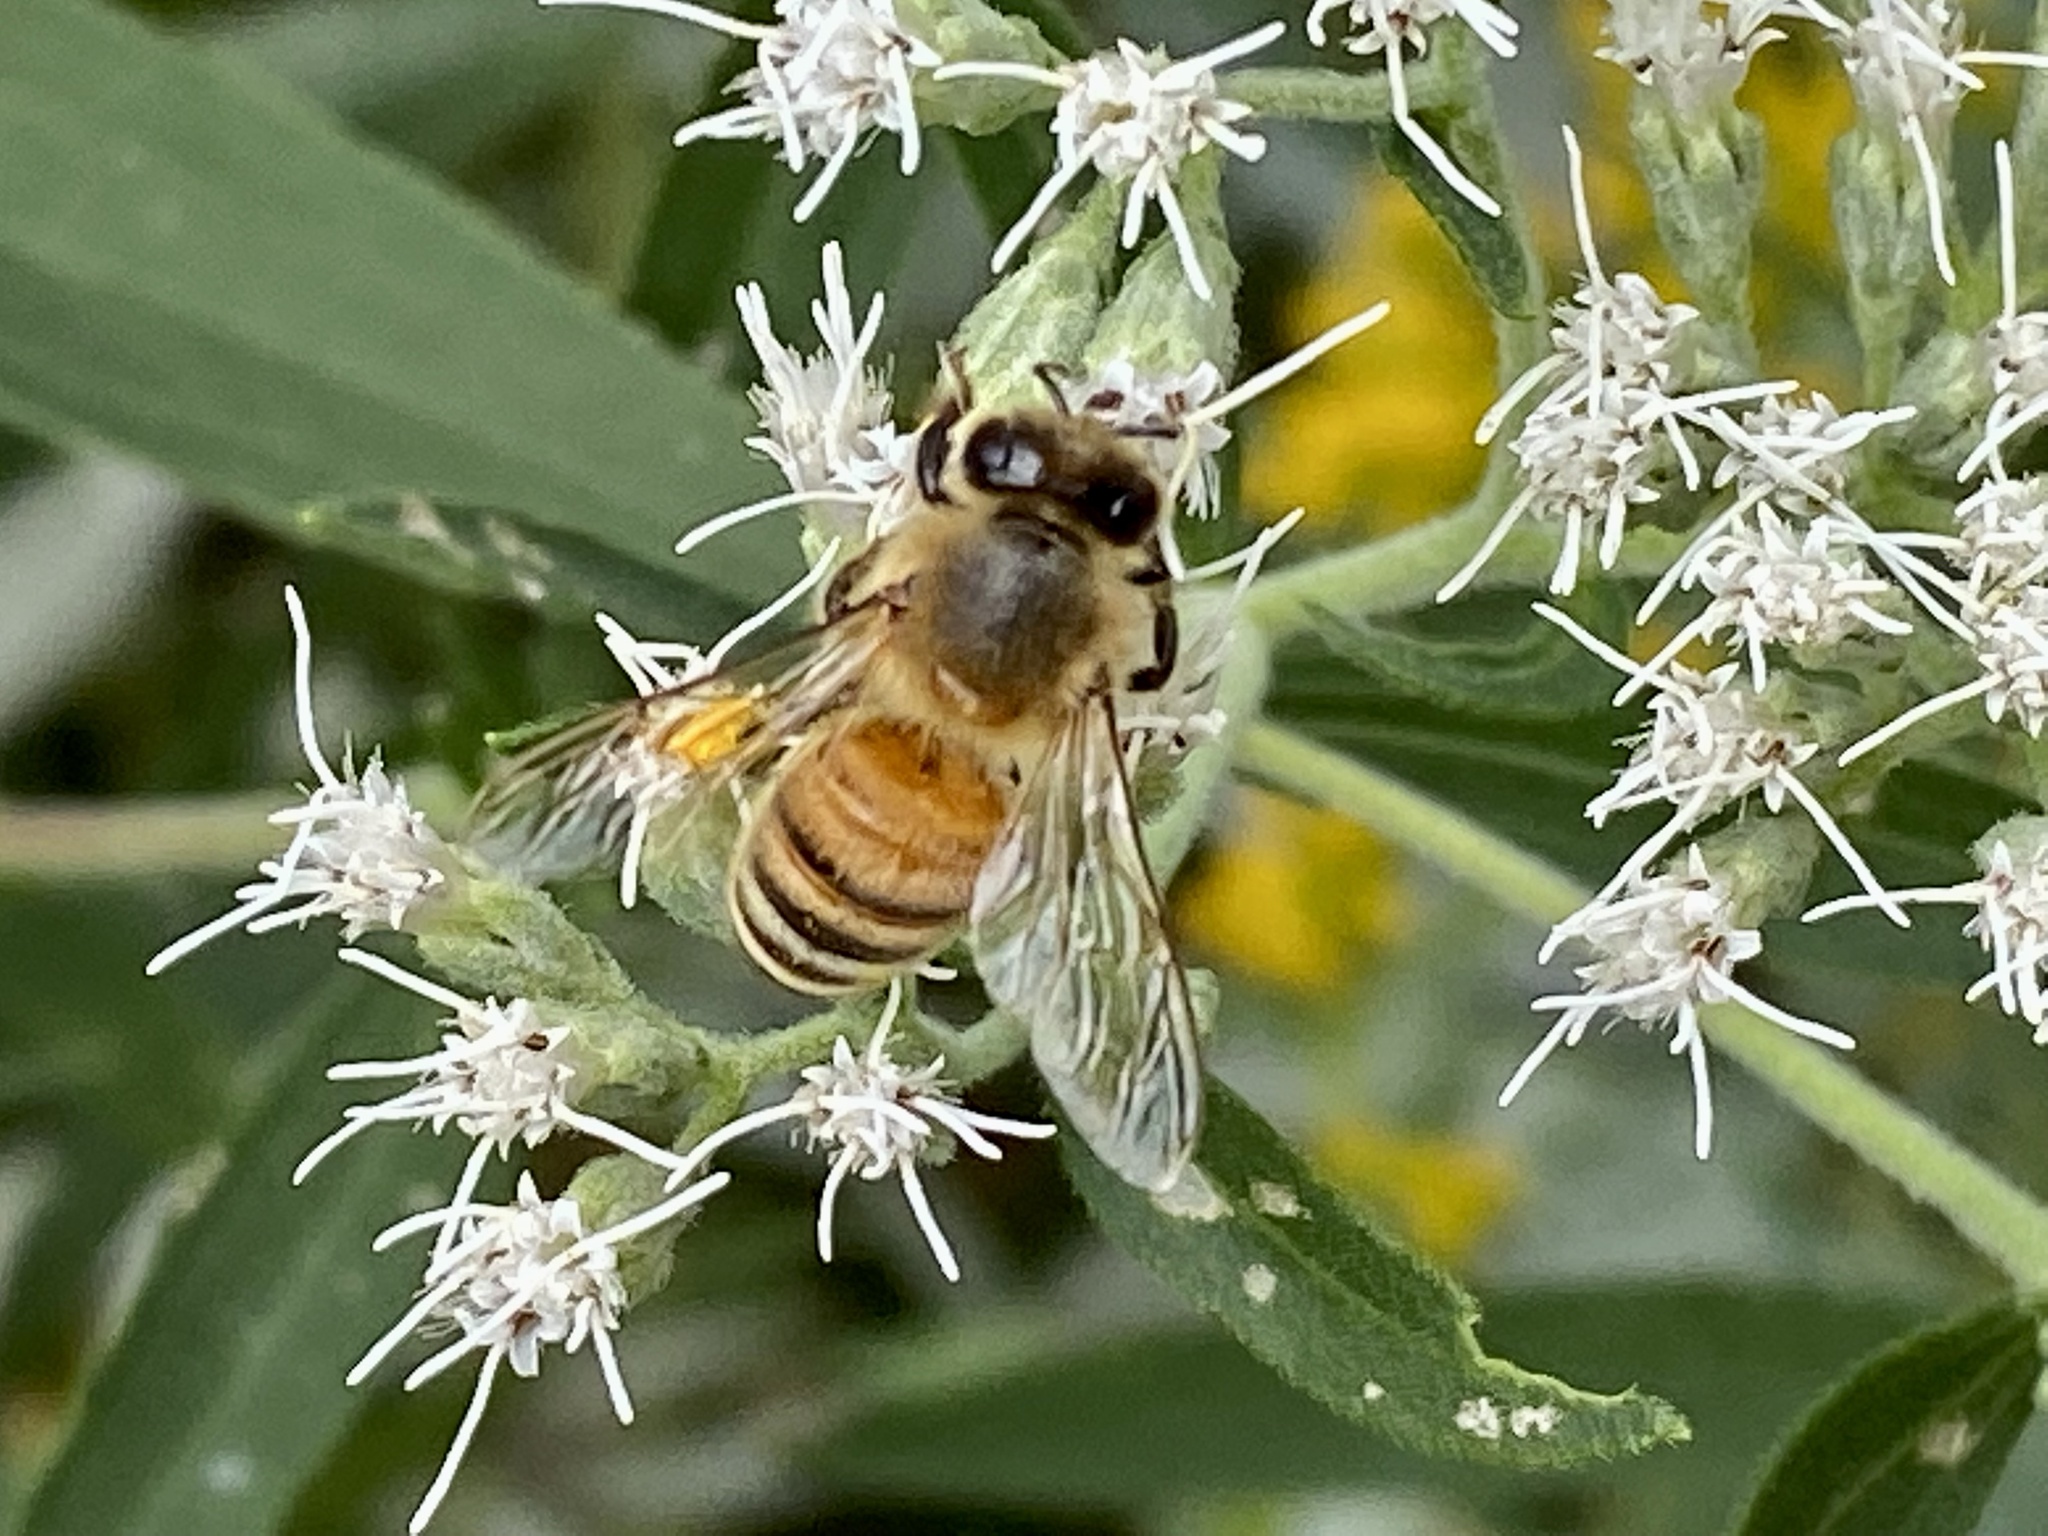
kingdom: Animalia
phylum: Arthropoda
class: Insecta
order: Hymenoptera
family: Apidae
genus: Apis
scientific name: Apis mellifera
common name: Honey bee
